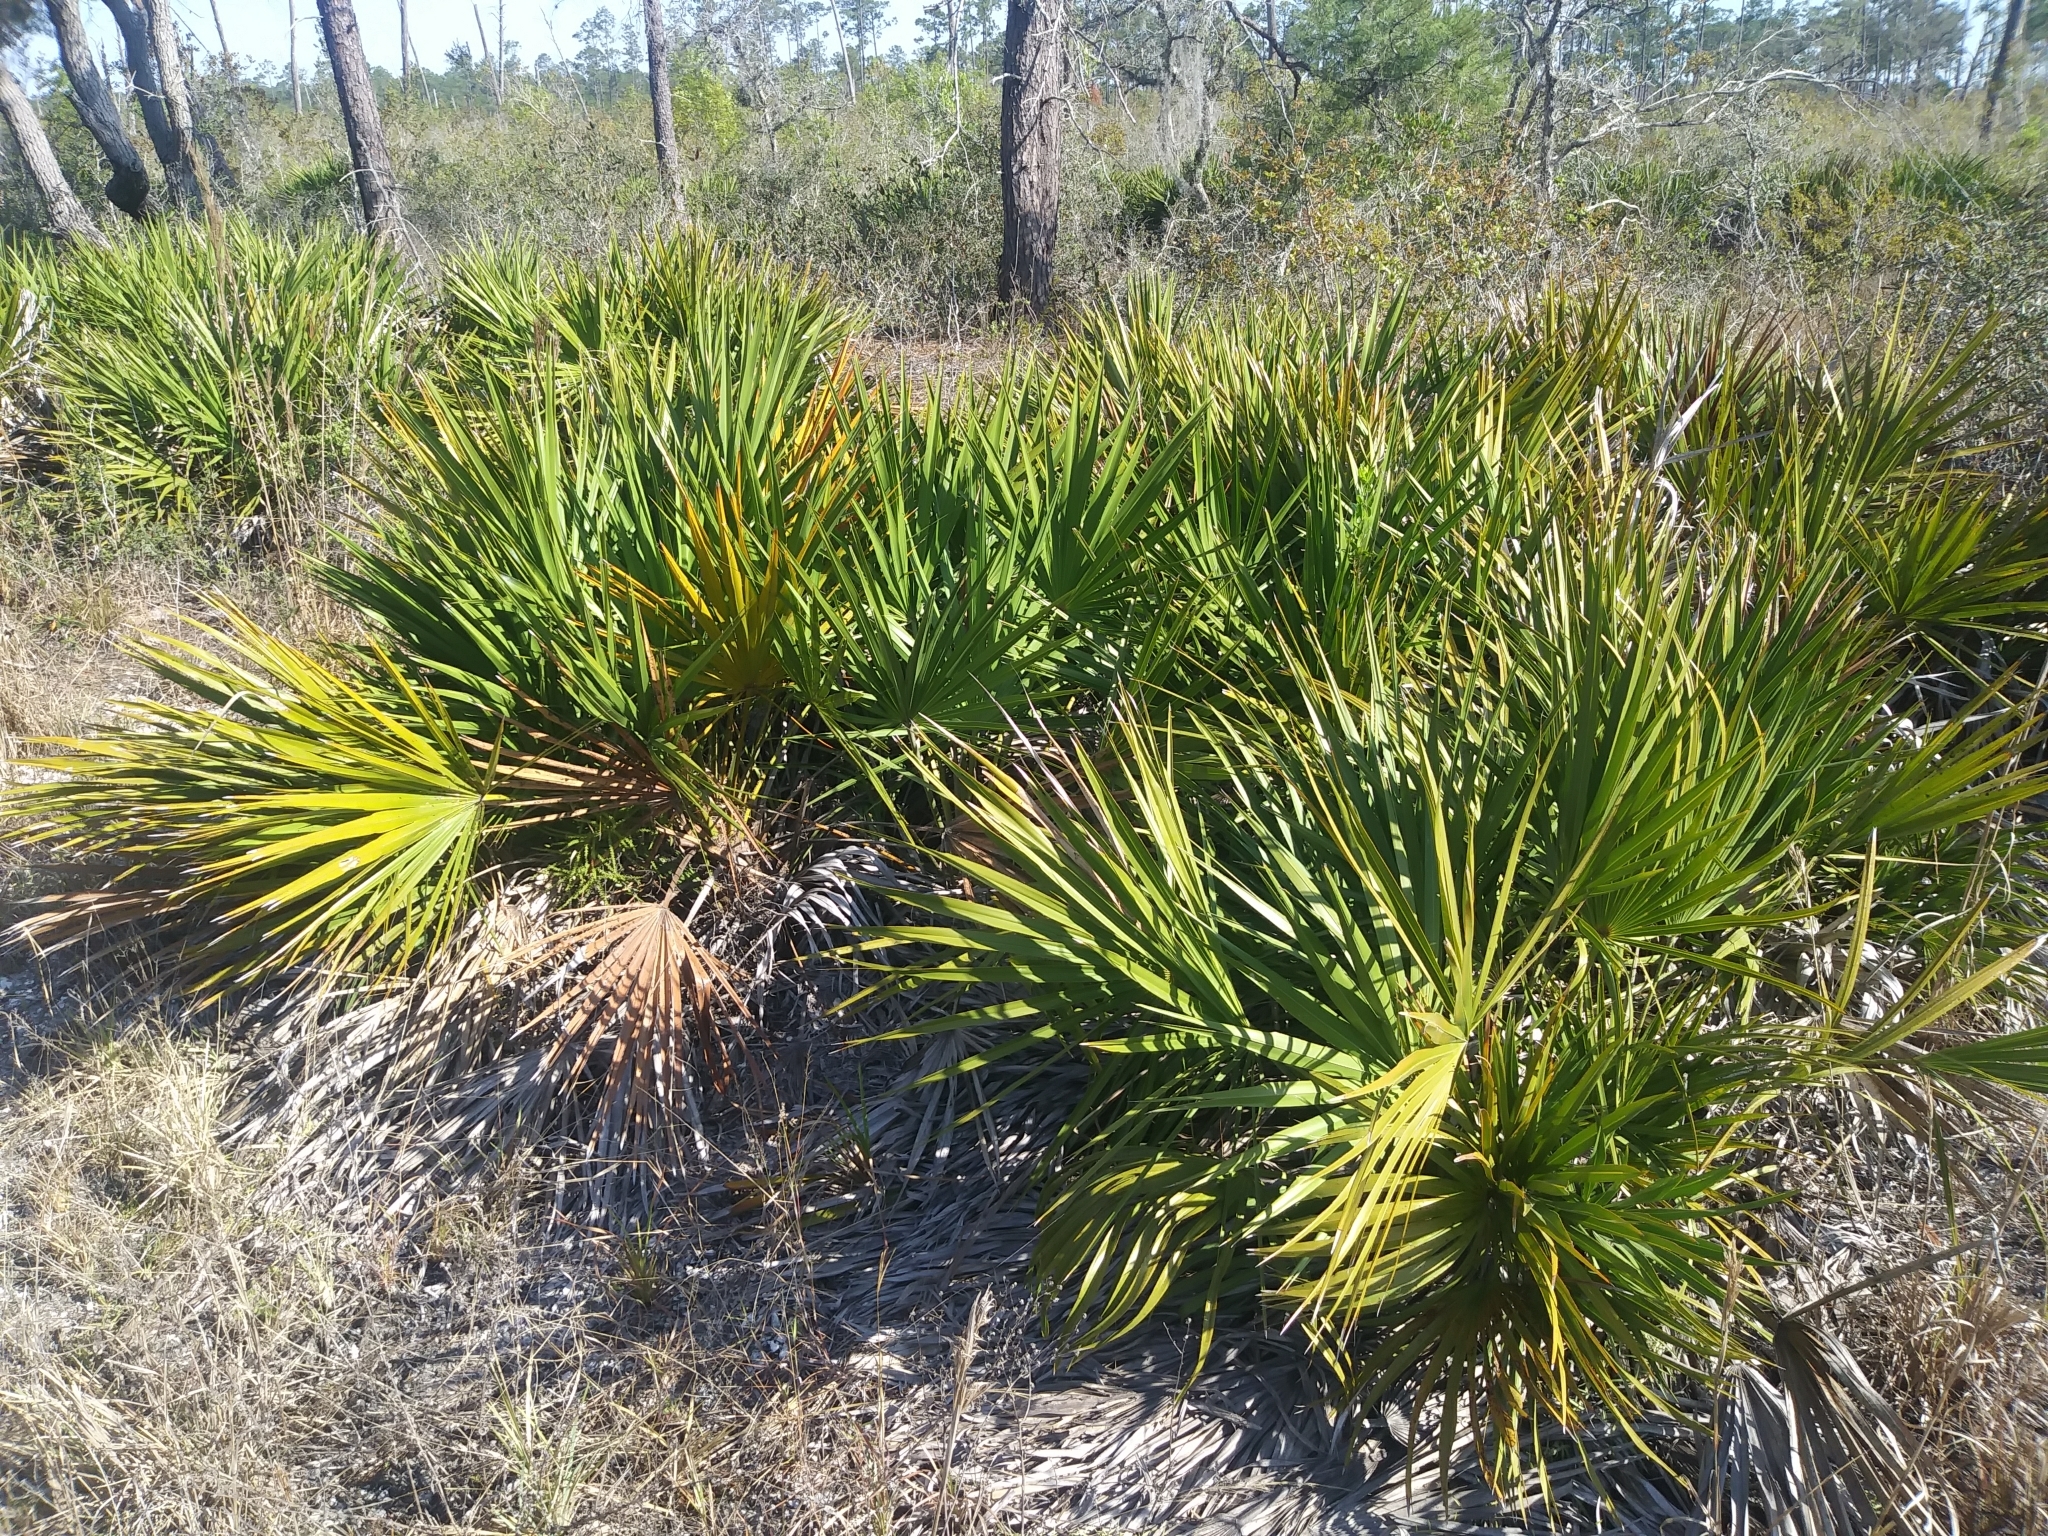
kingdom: Plantae
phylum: Tracheophyta
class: Liliopsida
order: Arecales
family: Arecaceae
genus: Serenoa
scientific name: Serenoa repens
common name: Saw-palmetto
